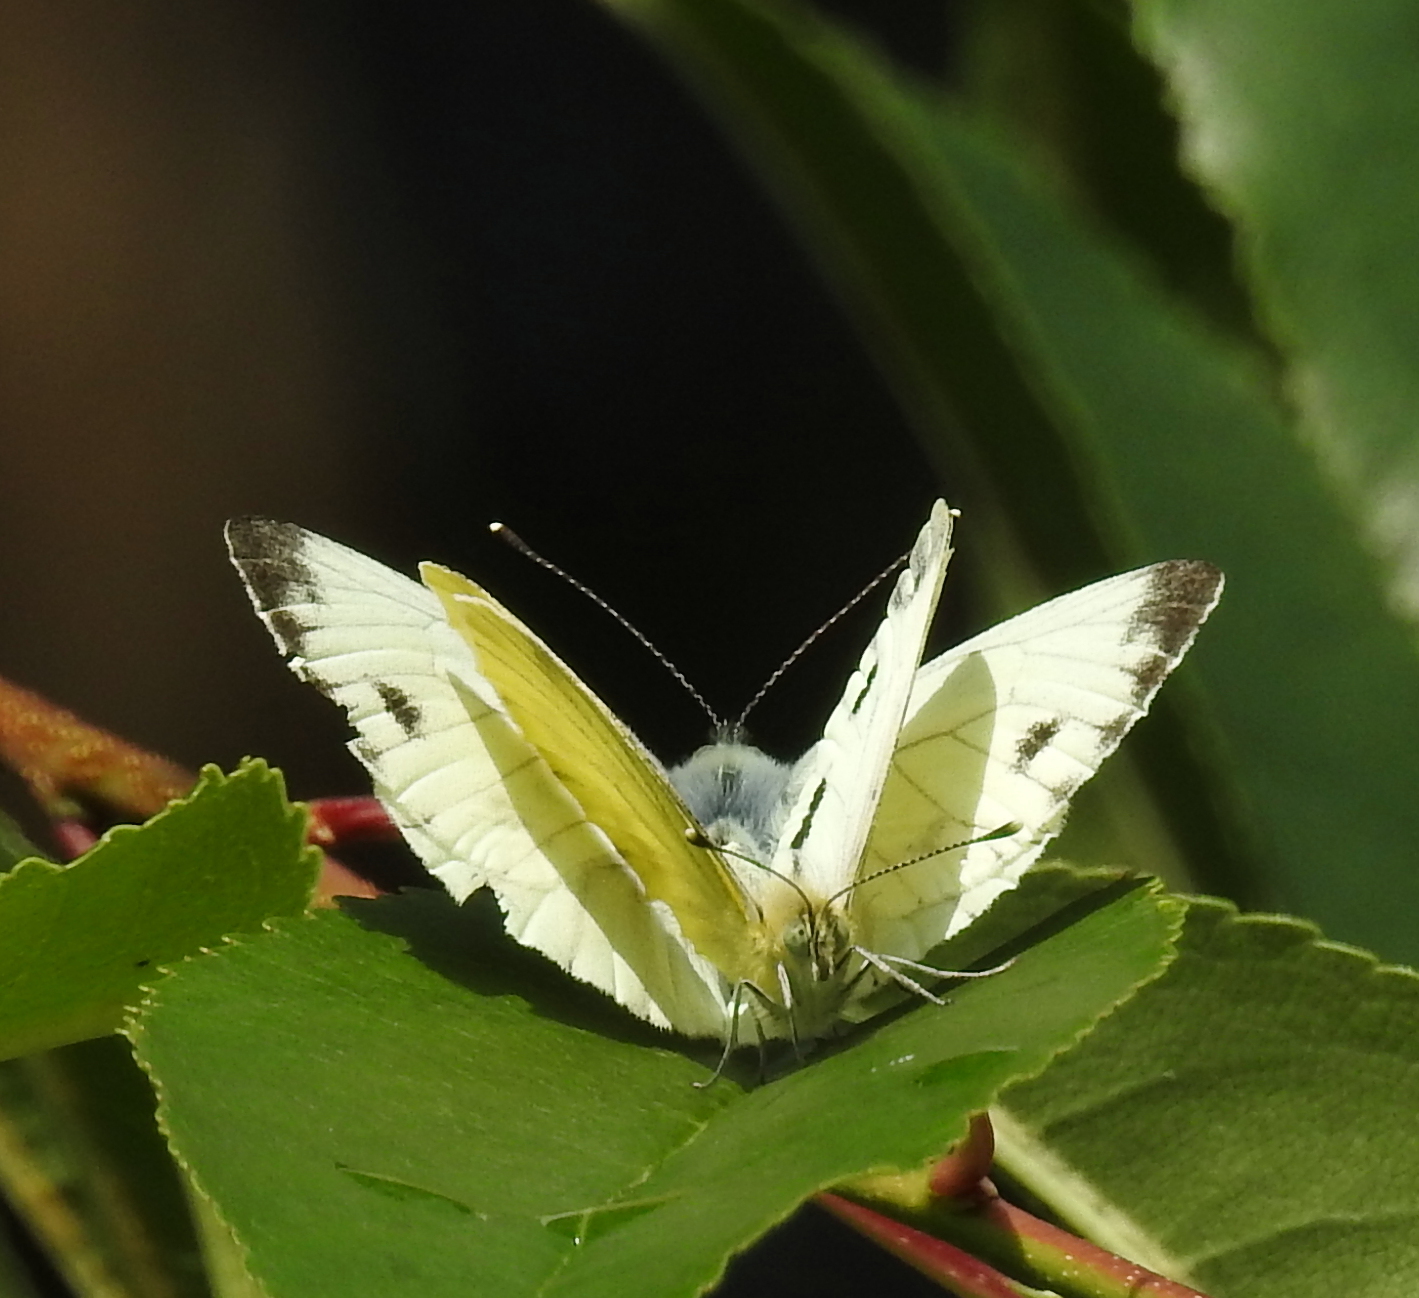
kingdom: Animalia
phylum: Arthropoda
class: Insecta
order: Lepidoptera
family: Pieridae
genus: Pieris
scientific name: Pieris napi
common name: Green-veined white
